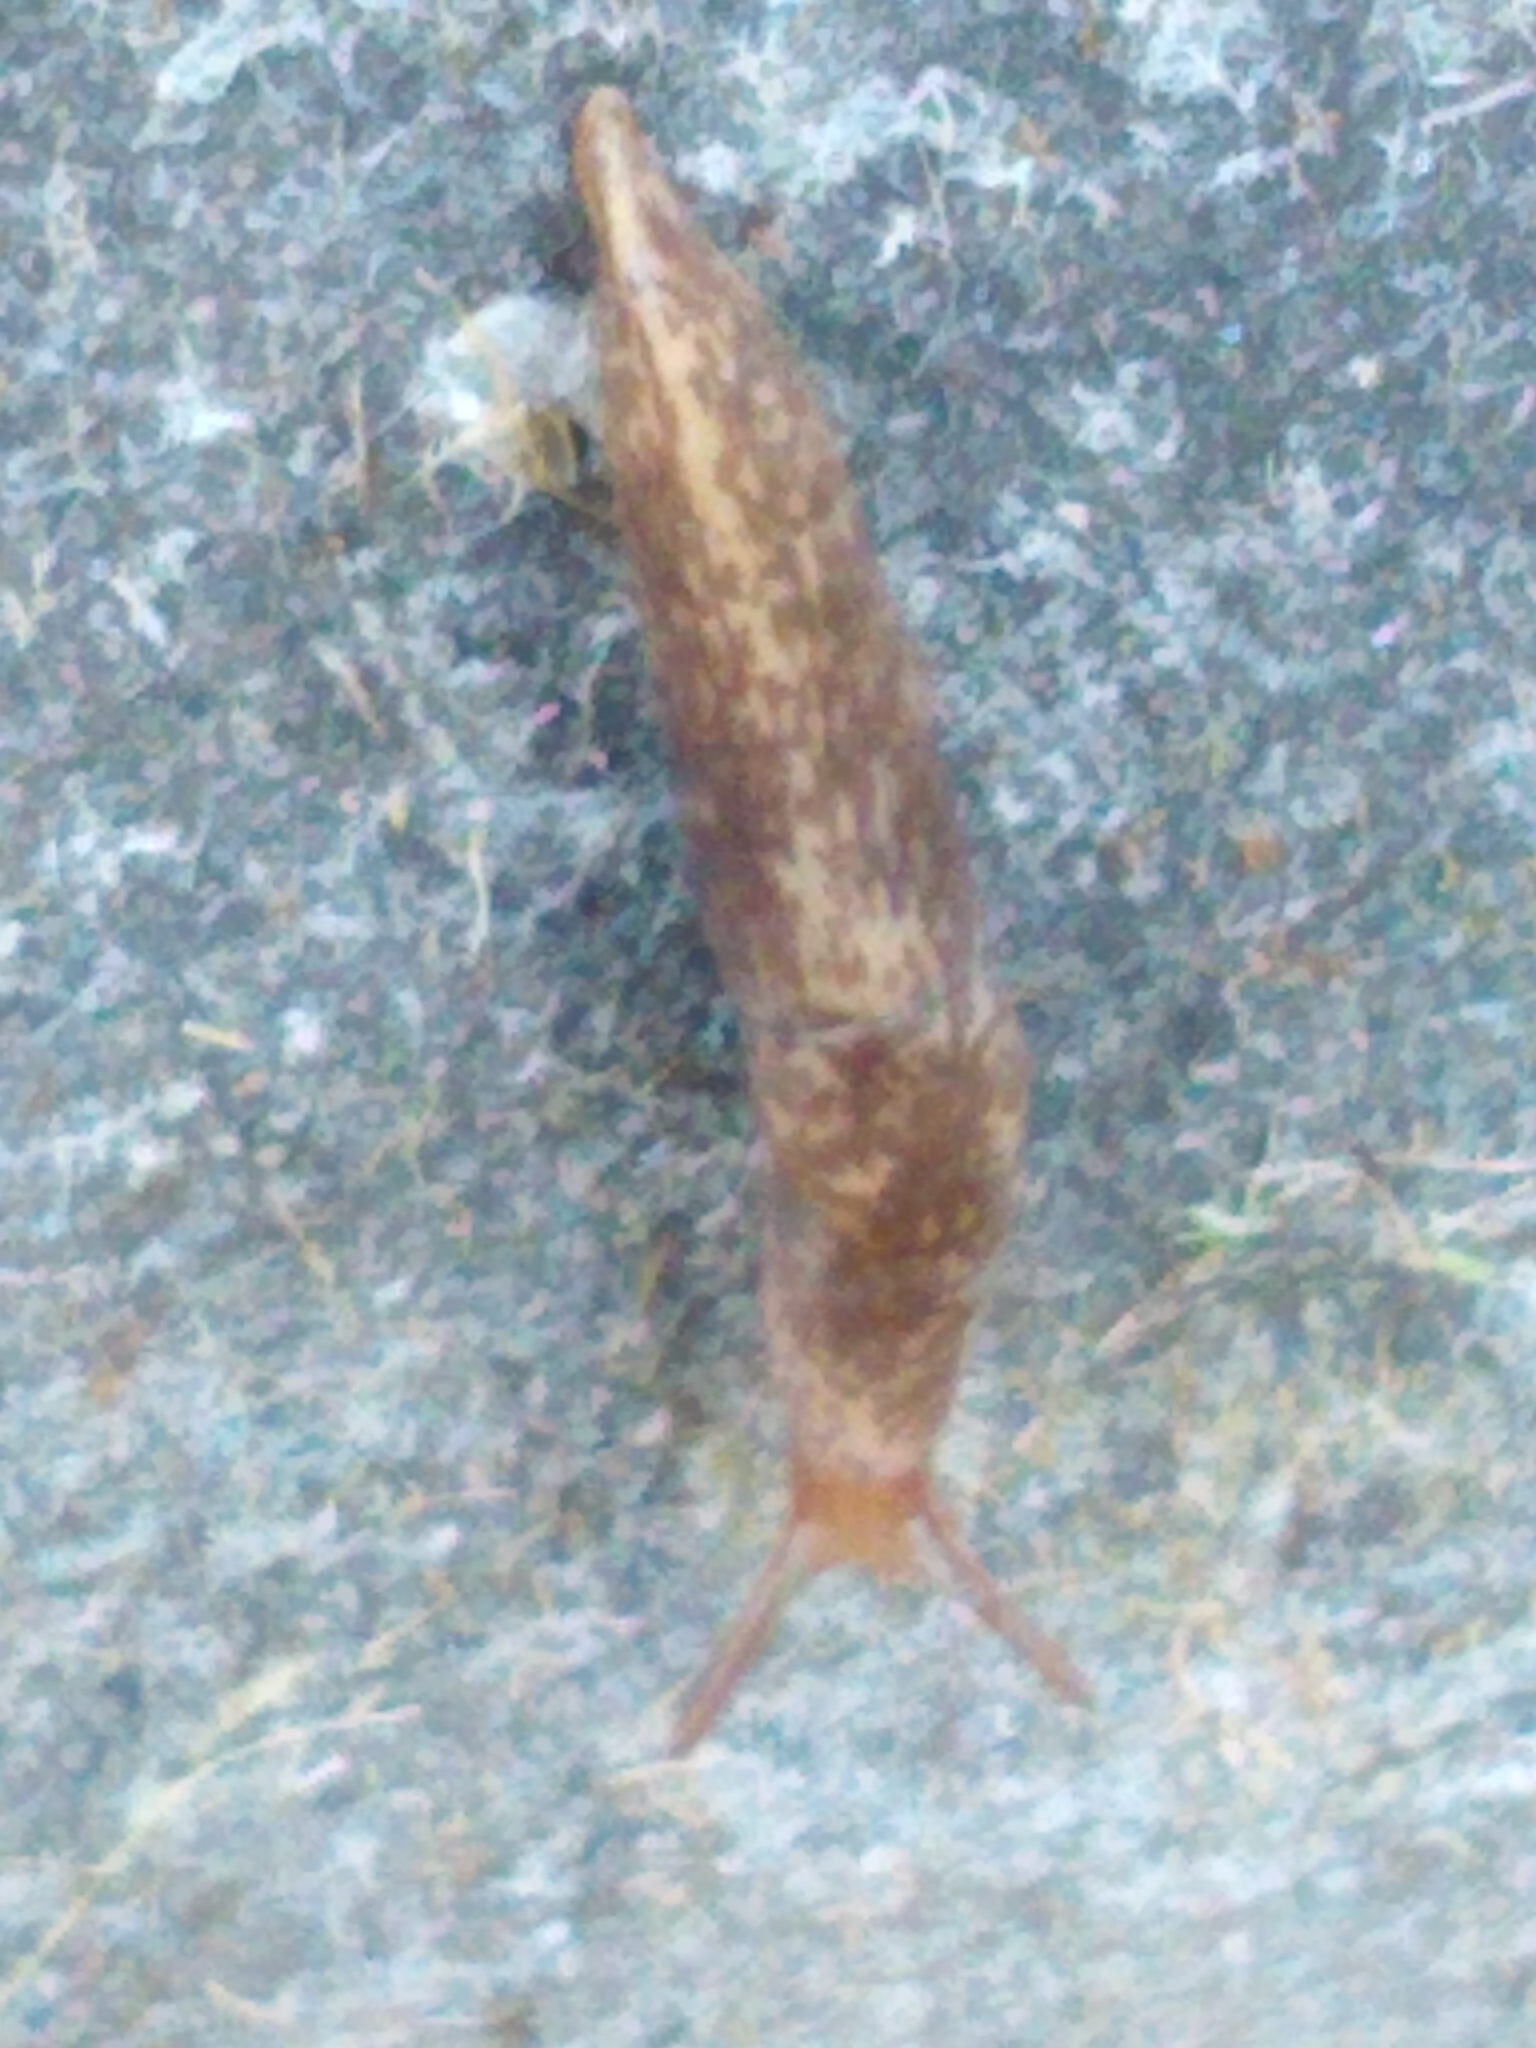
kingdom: Animalia
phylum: Mollusca
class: Gastropoda
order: Stylommatophora
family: Agriolimacidae
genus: Deroceras
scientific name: Deroceras reticulatum
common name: Gray field slug
